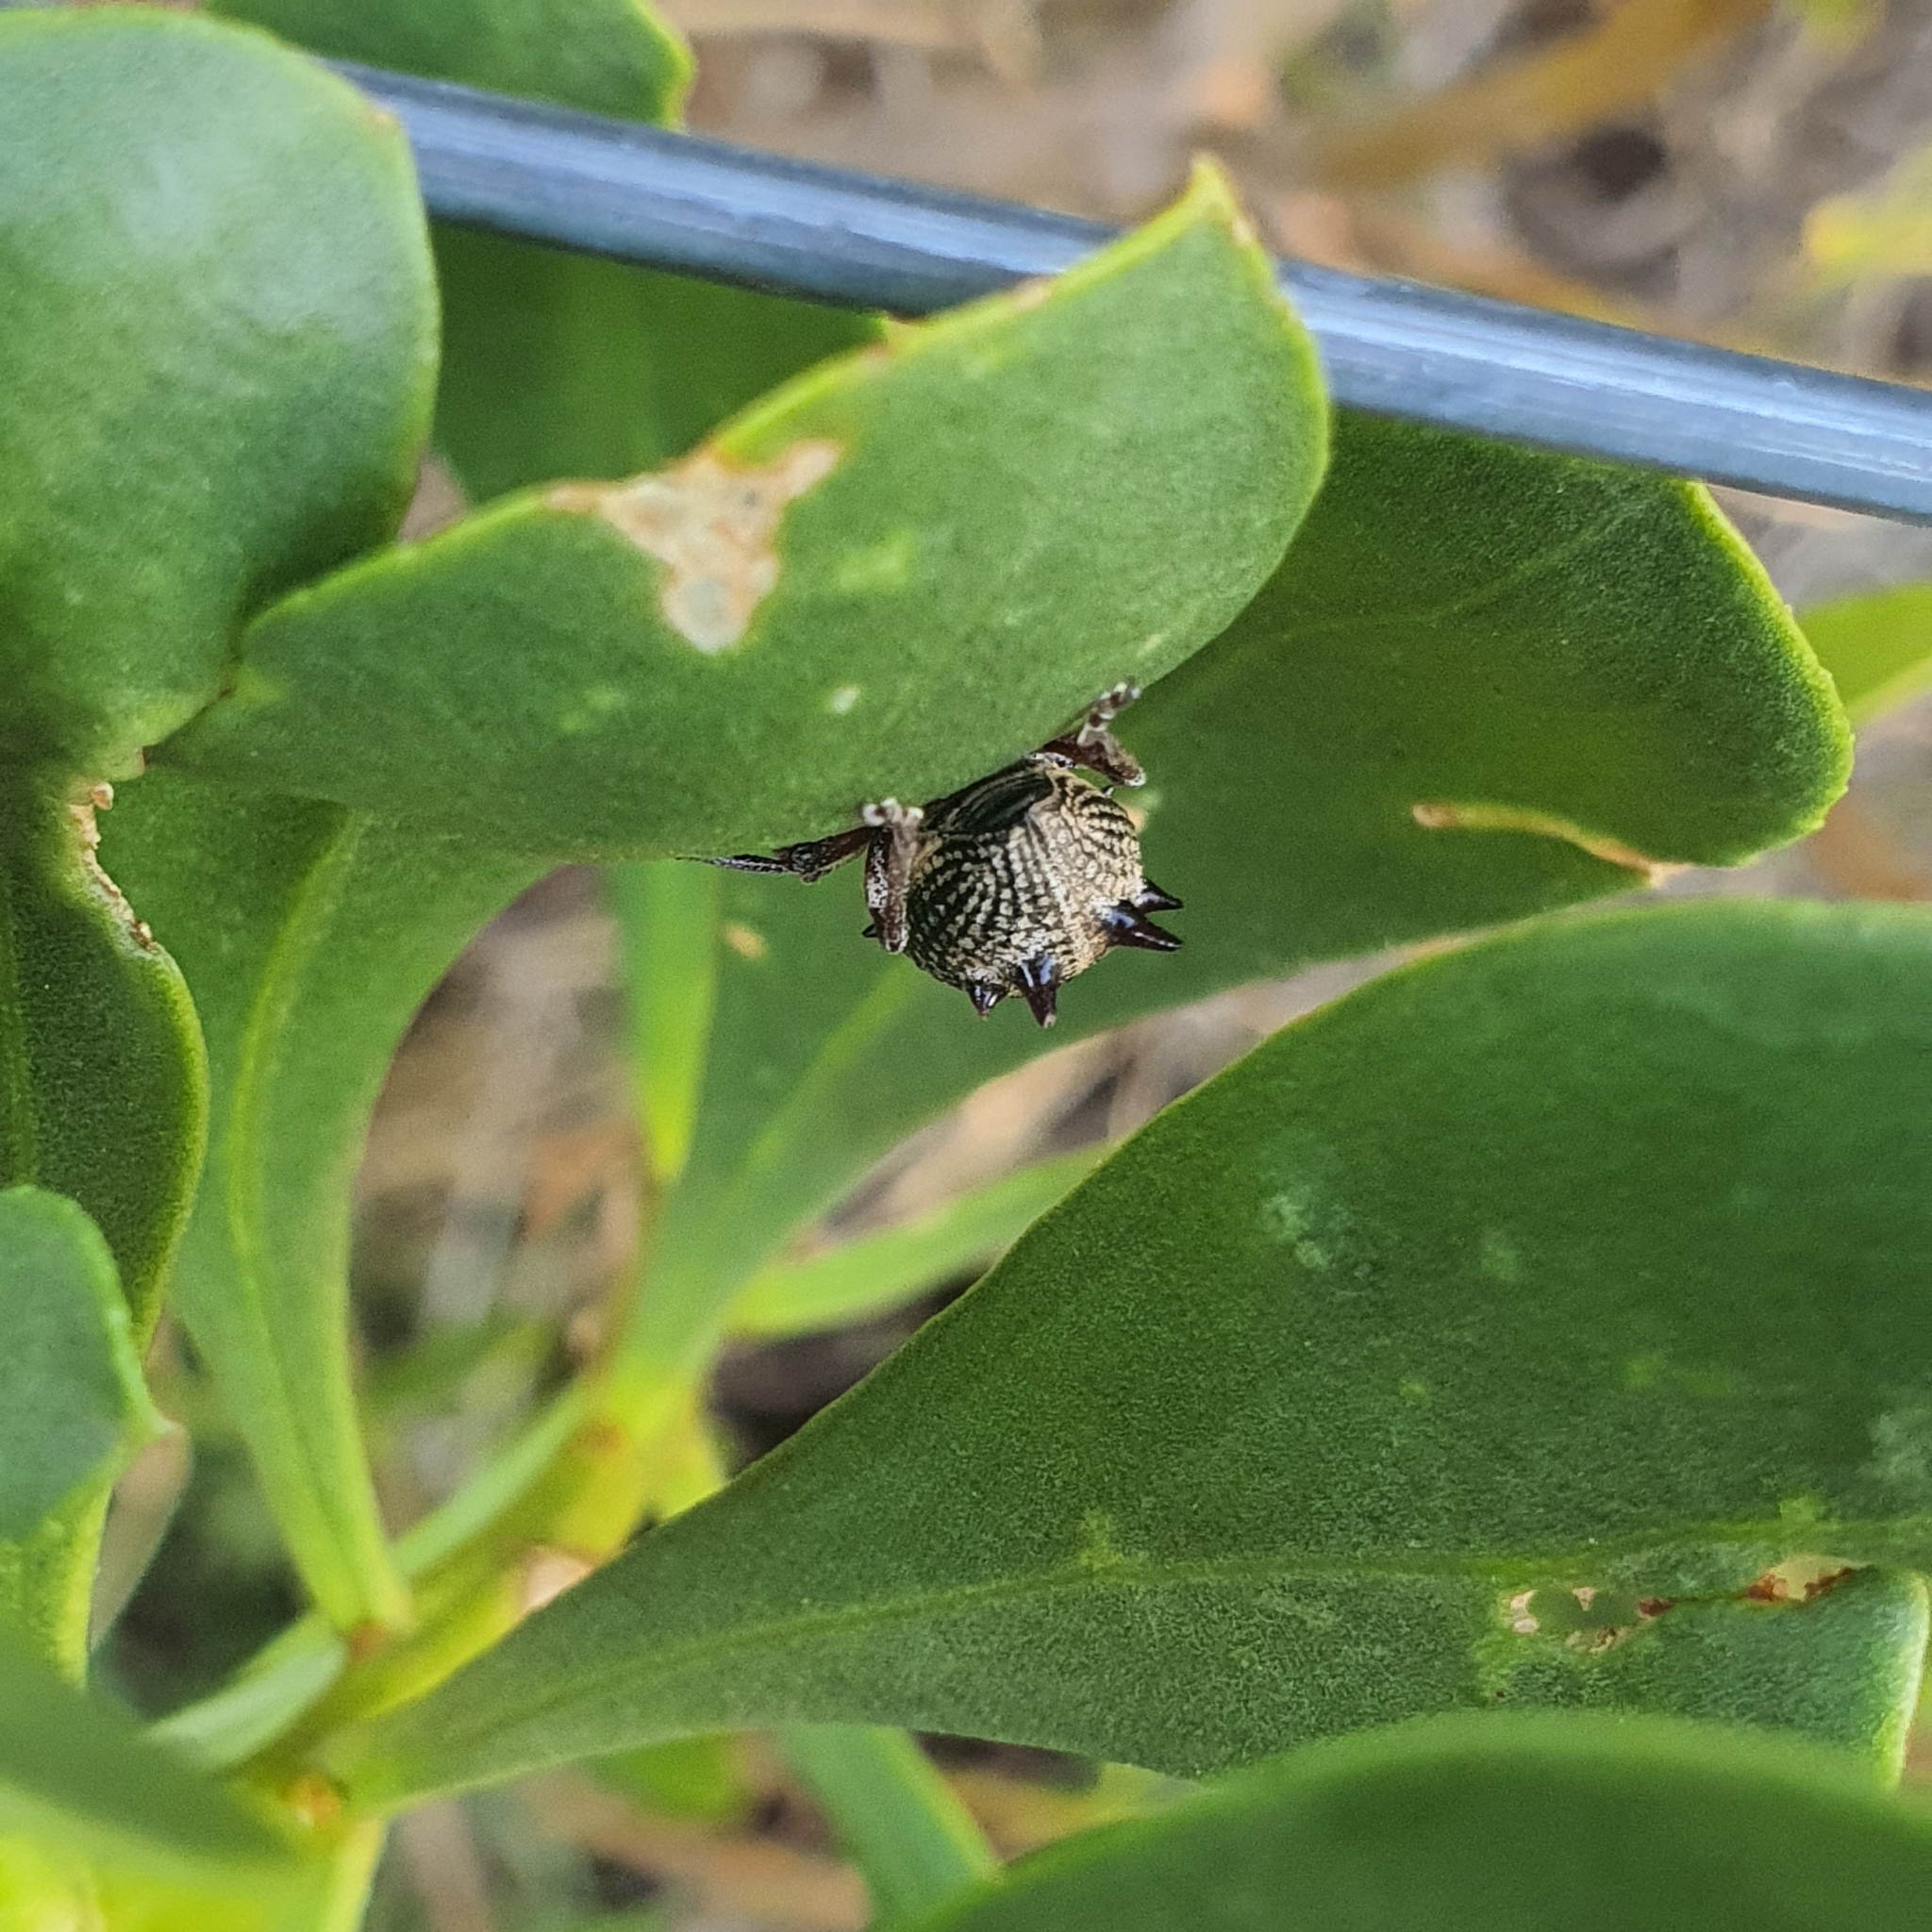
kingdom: Animalia
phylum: Arthropoda
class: Insecta
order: Coleoptera
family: Curculionidae
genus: Catasarcus
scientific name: Catasarcus spinipennis
